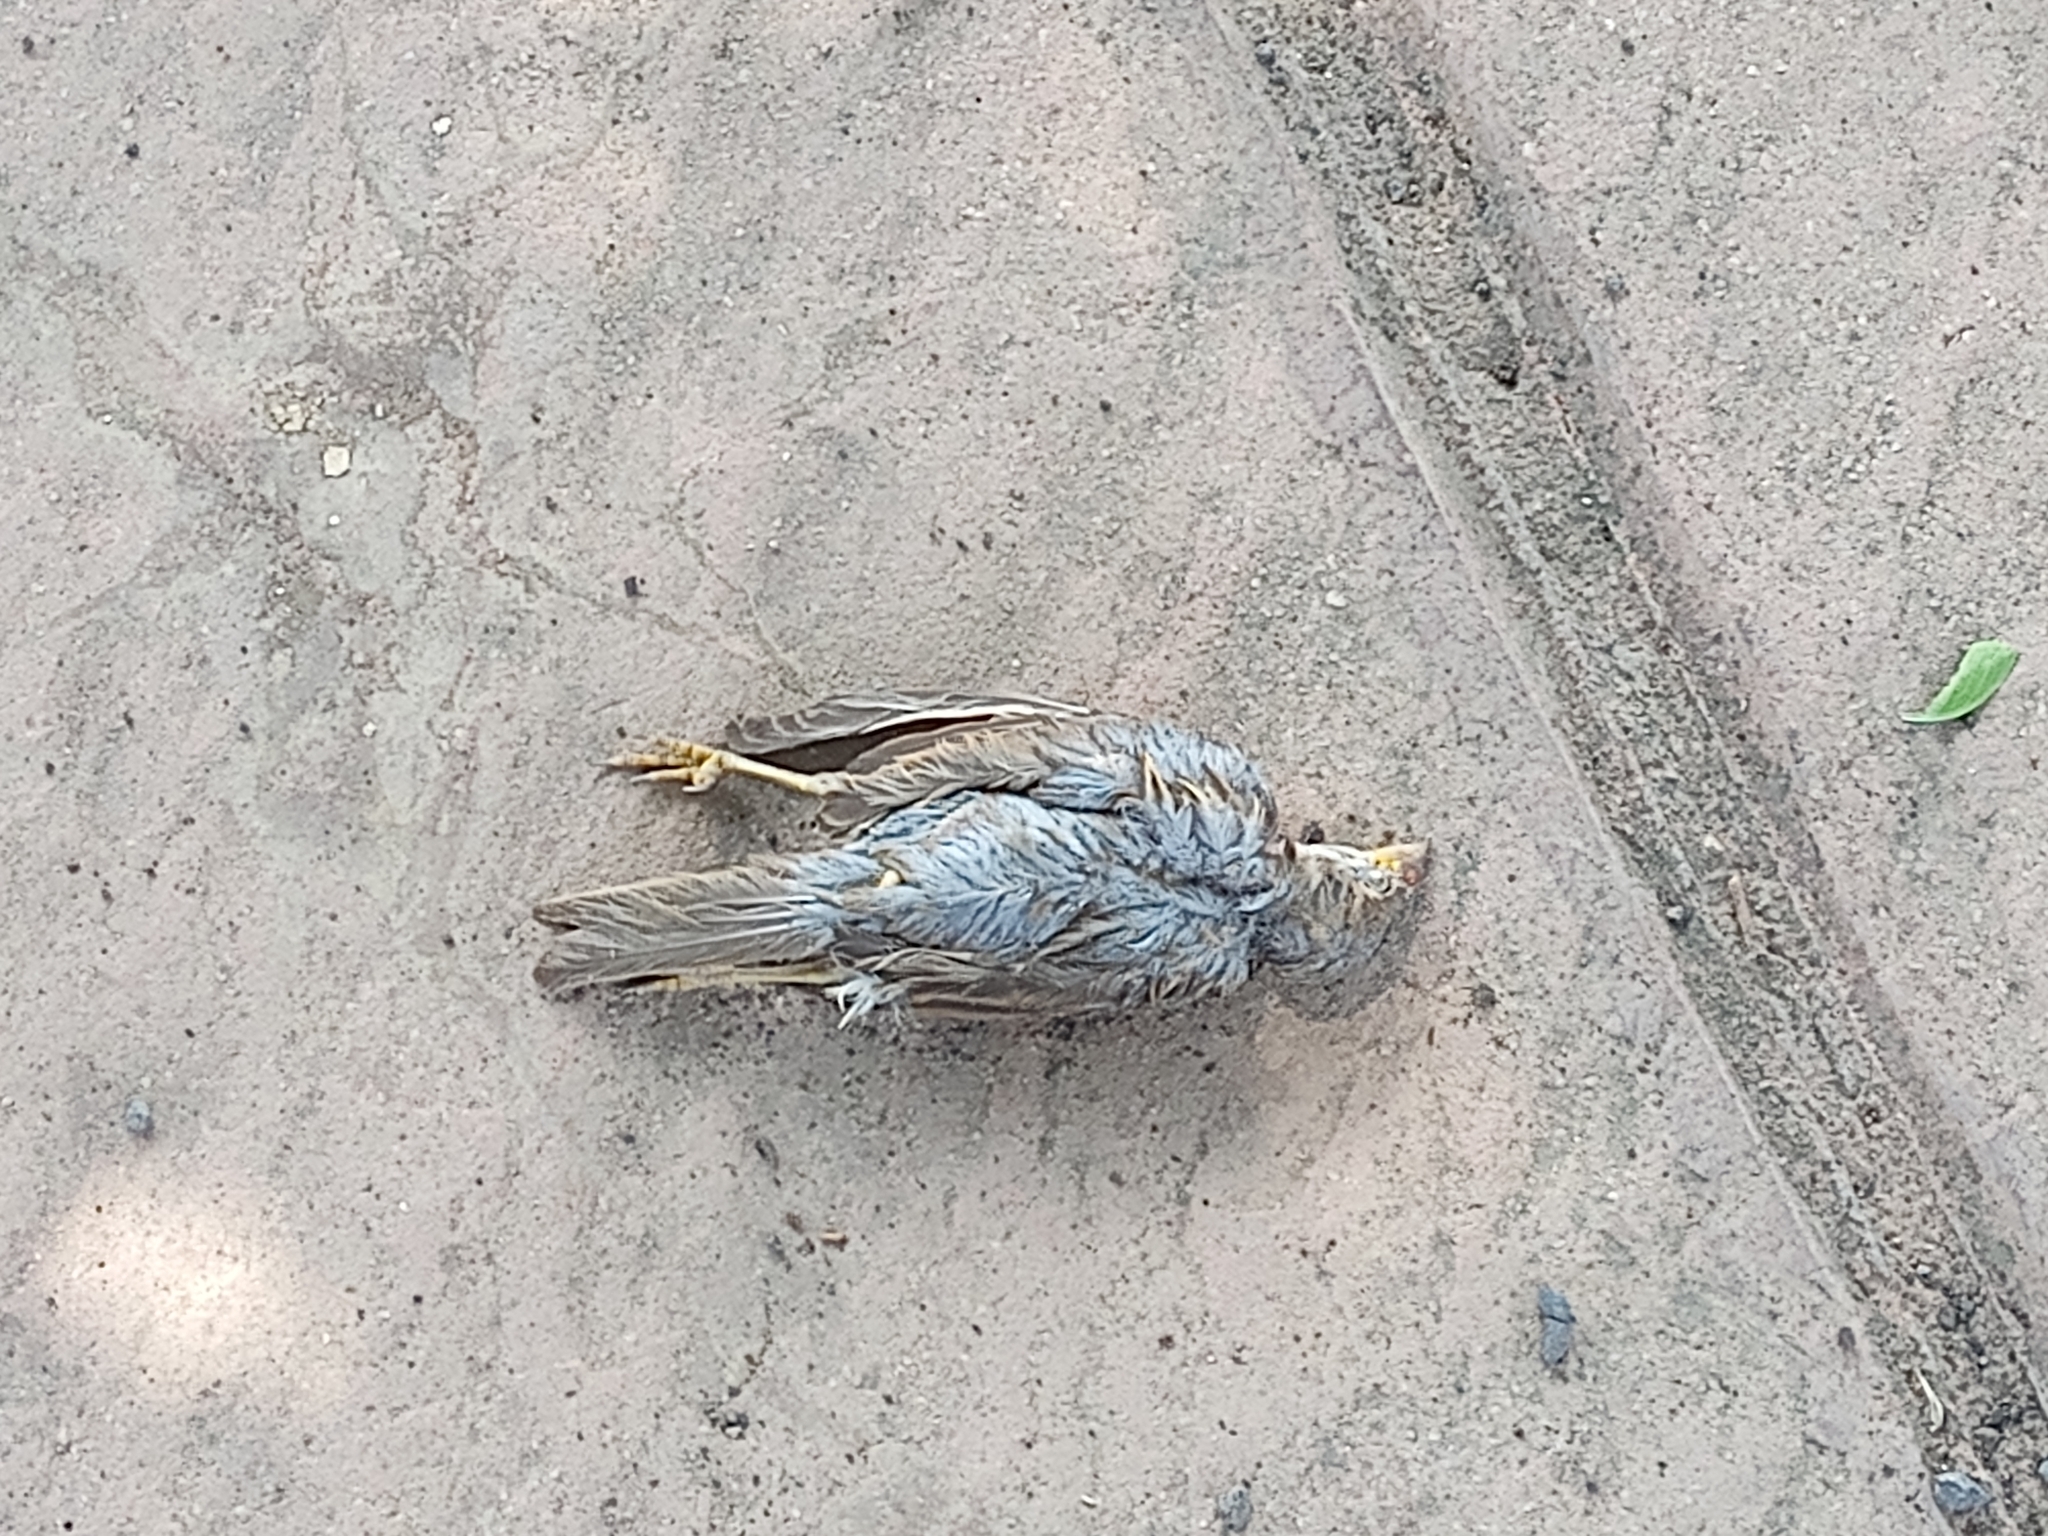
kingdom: Animalia
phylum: Chordata
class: Aves
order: Passeriformes
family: Passeridae
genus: Passer
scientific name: Passer domesticus
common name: House sparrow
